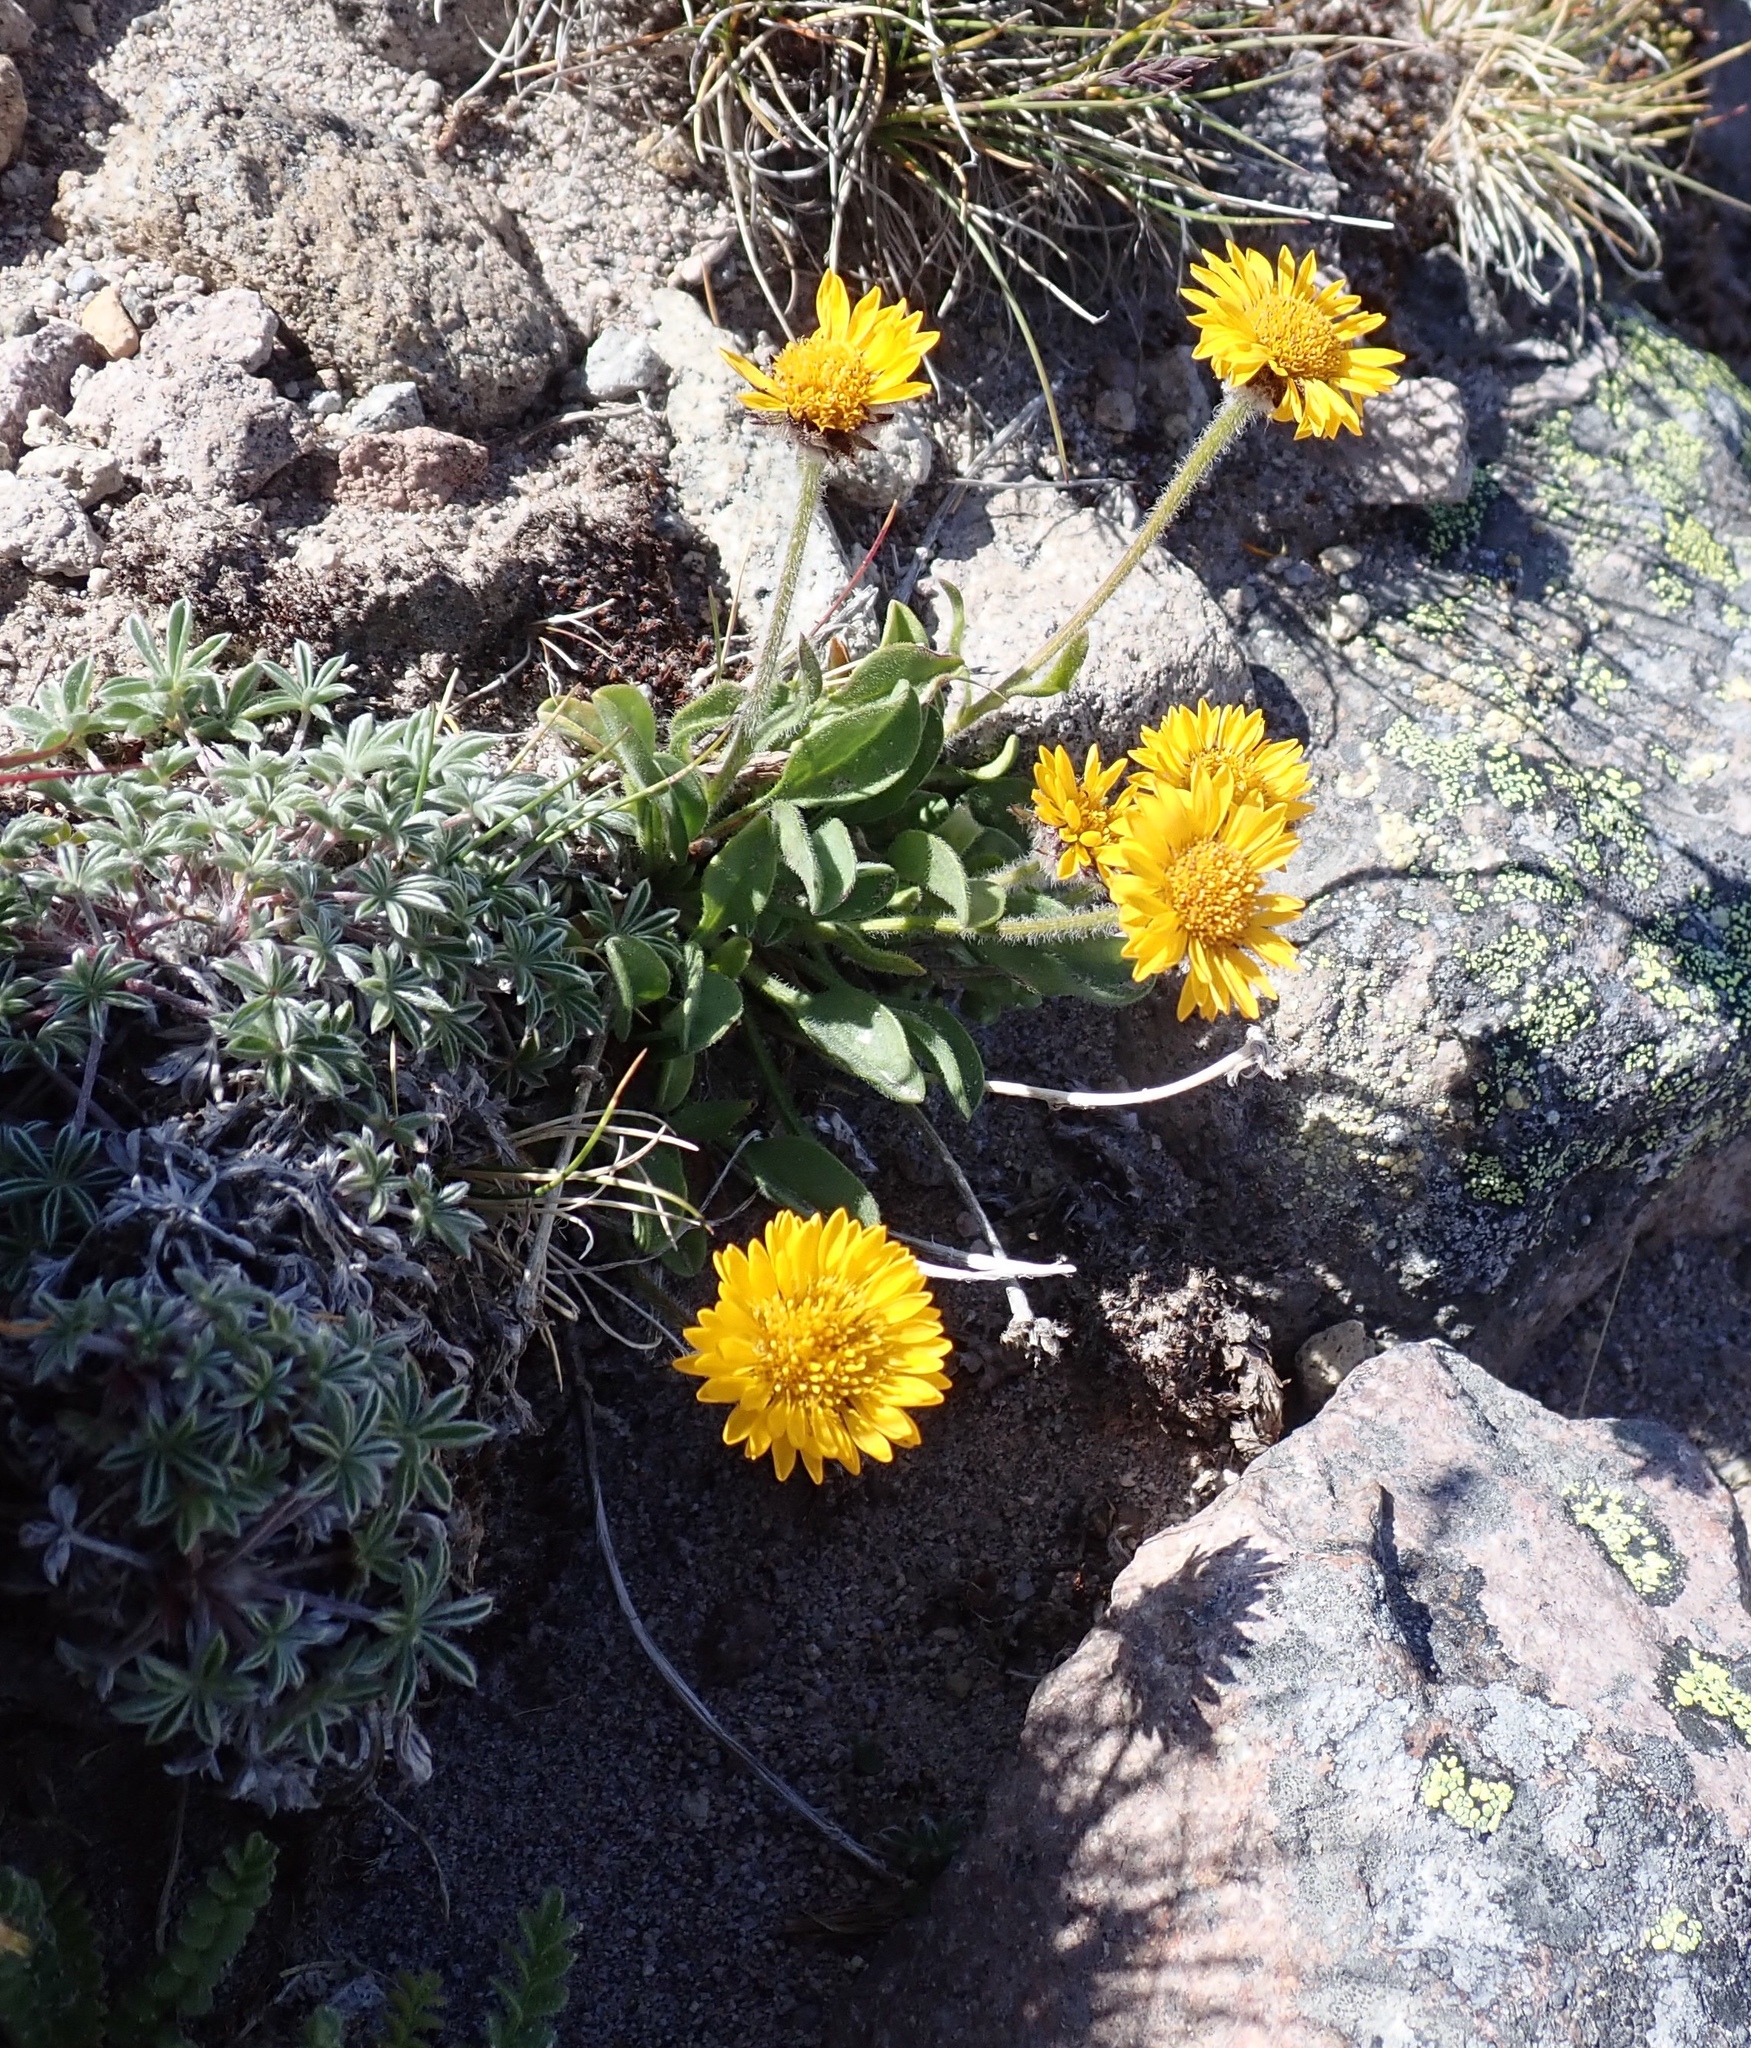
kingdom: Plantae
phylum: Tracheophyta
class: Magnoliopsida
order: Asterales
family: Asteraceae
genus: Erigeron
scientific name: Erigeron aureus
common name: Alpine yellow fleabane
